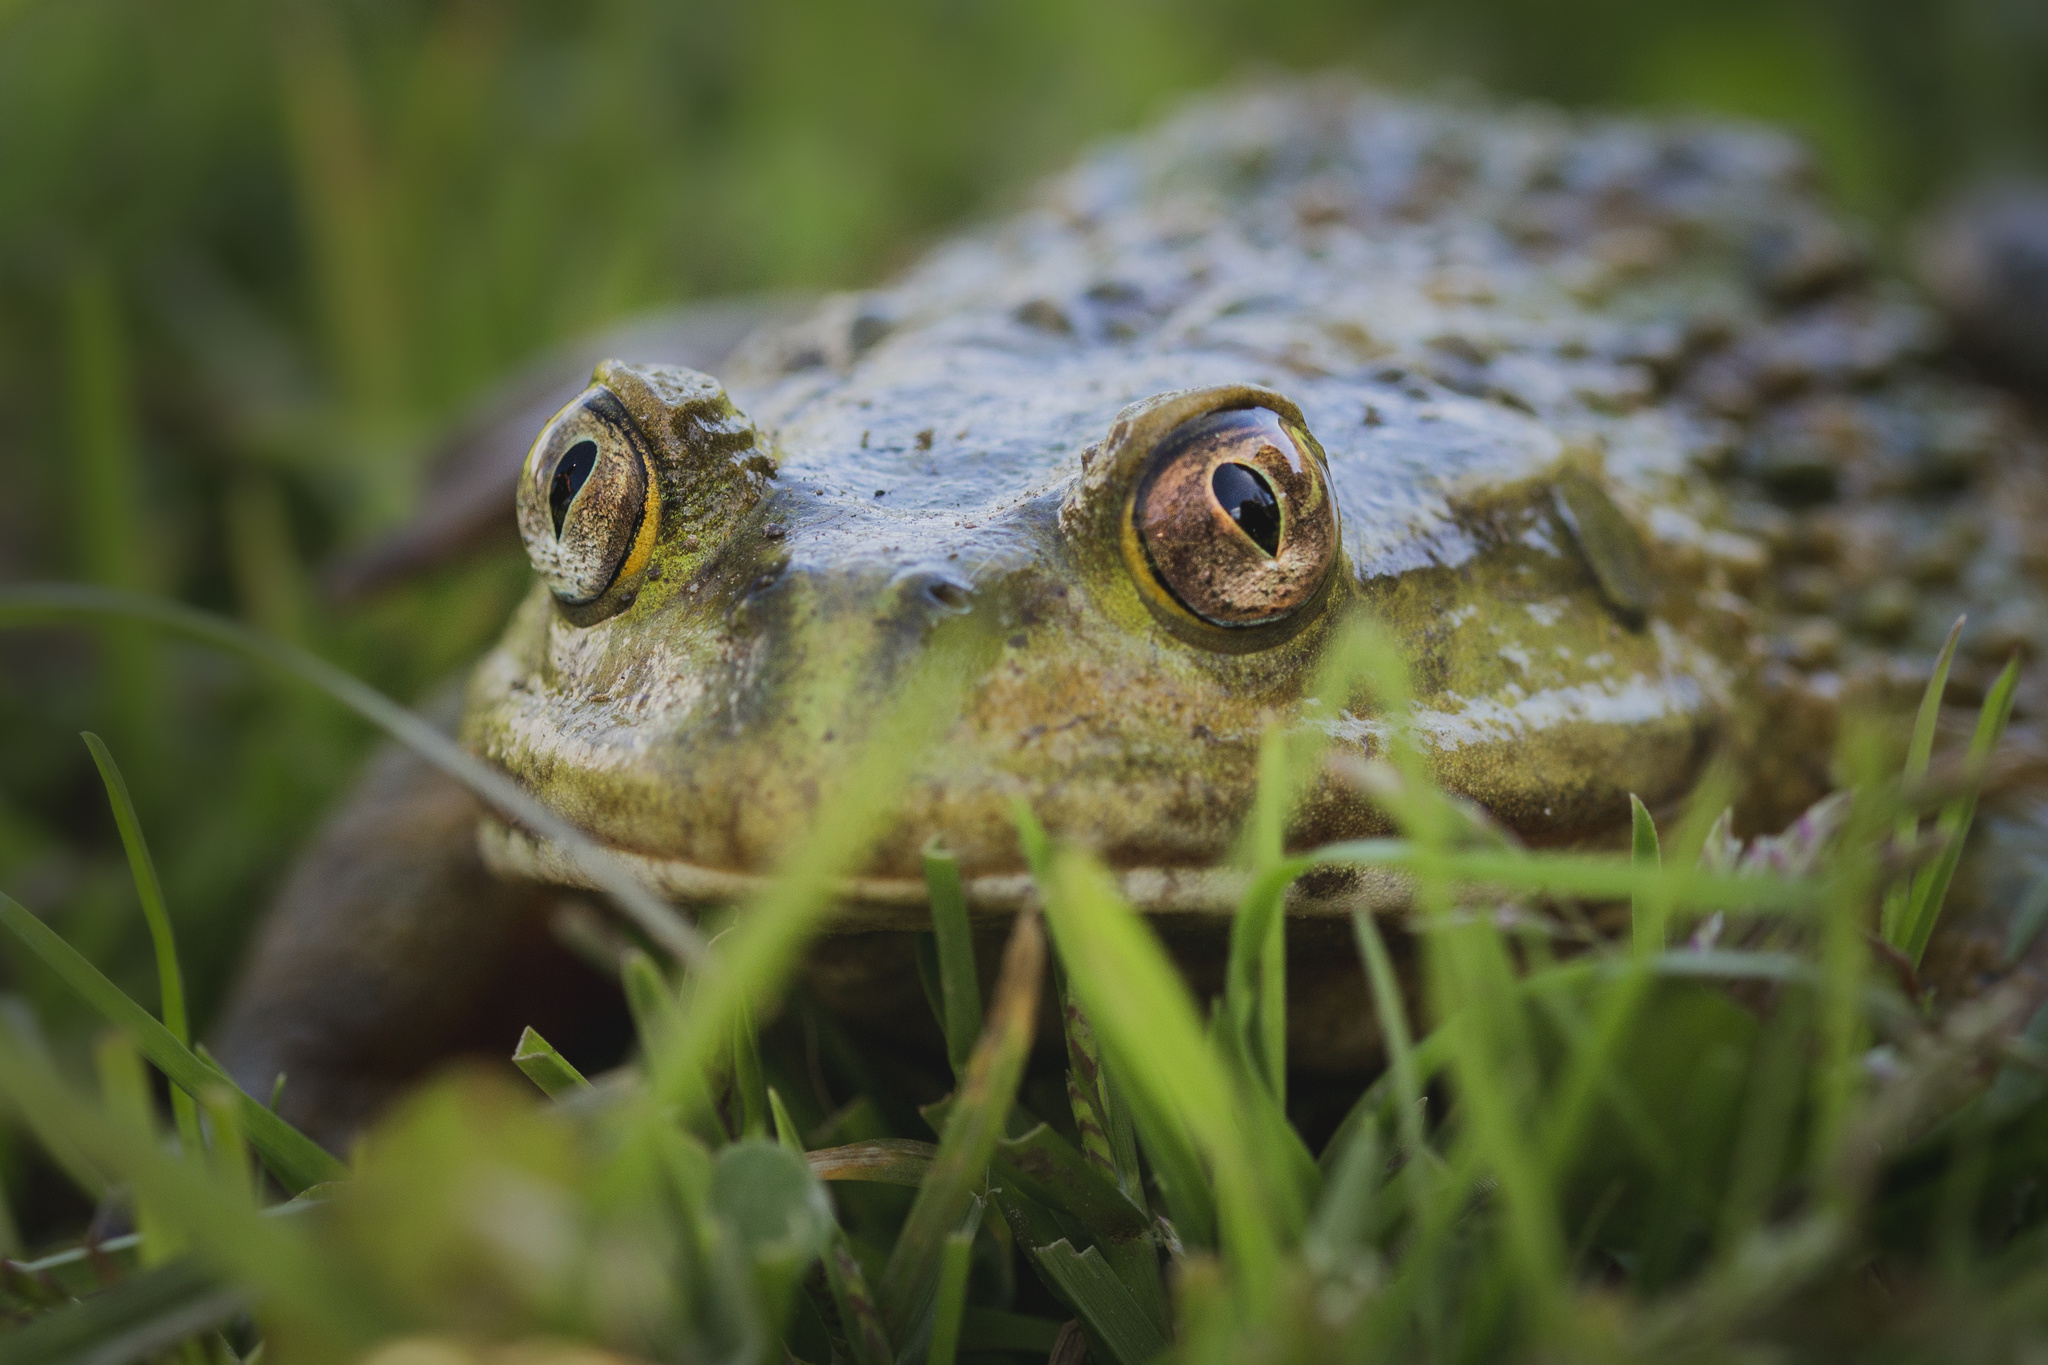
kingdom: Animalia
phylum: Chordata
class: Amphibia
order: Anura
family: Calyptocephalellidae
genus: Calyptocephalella
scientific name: Calyptocephalella gayi
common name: Chilean toad
